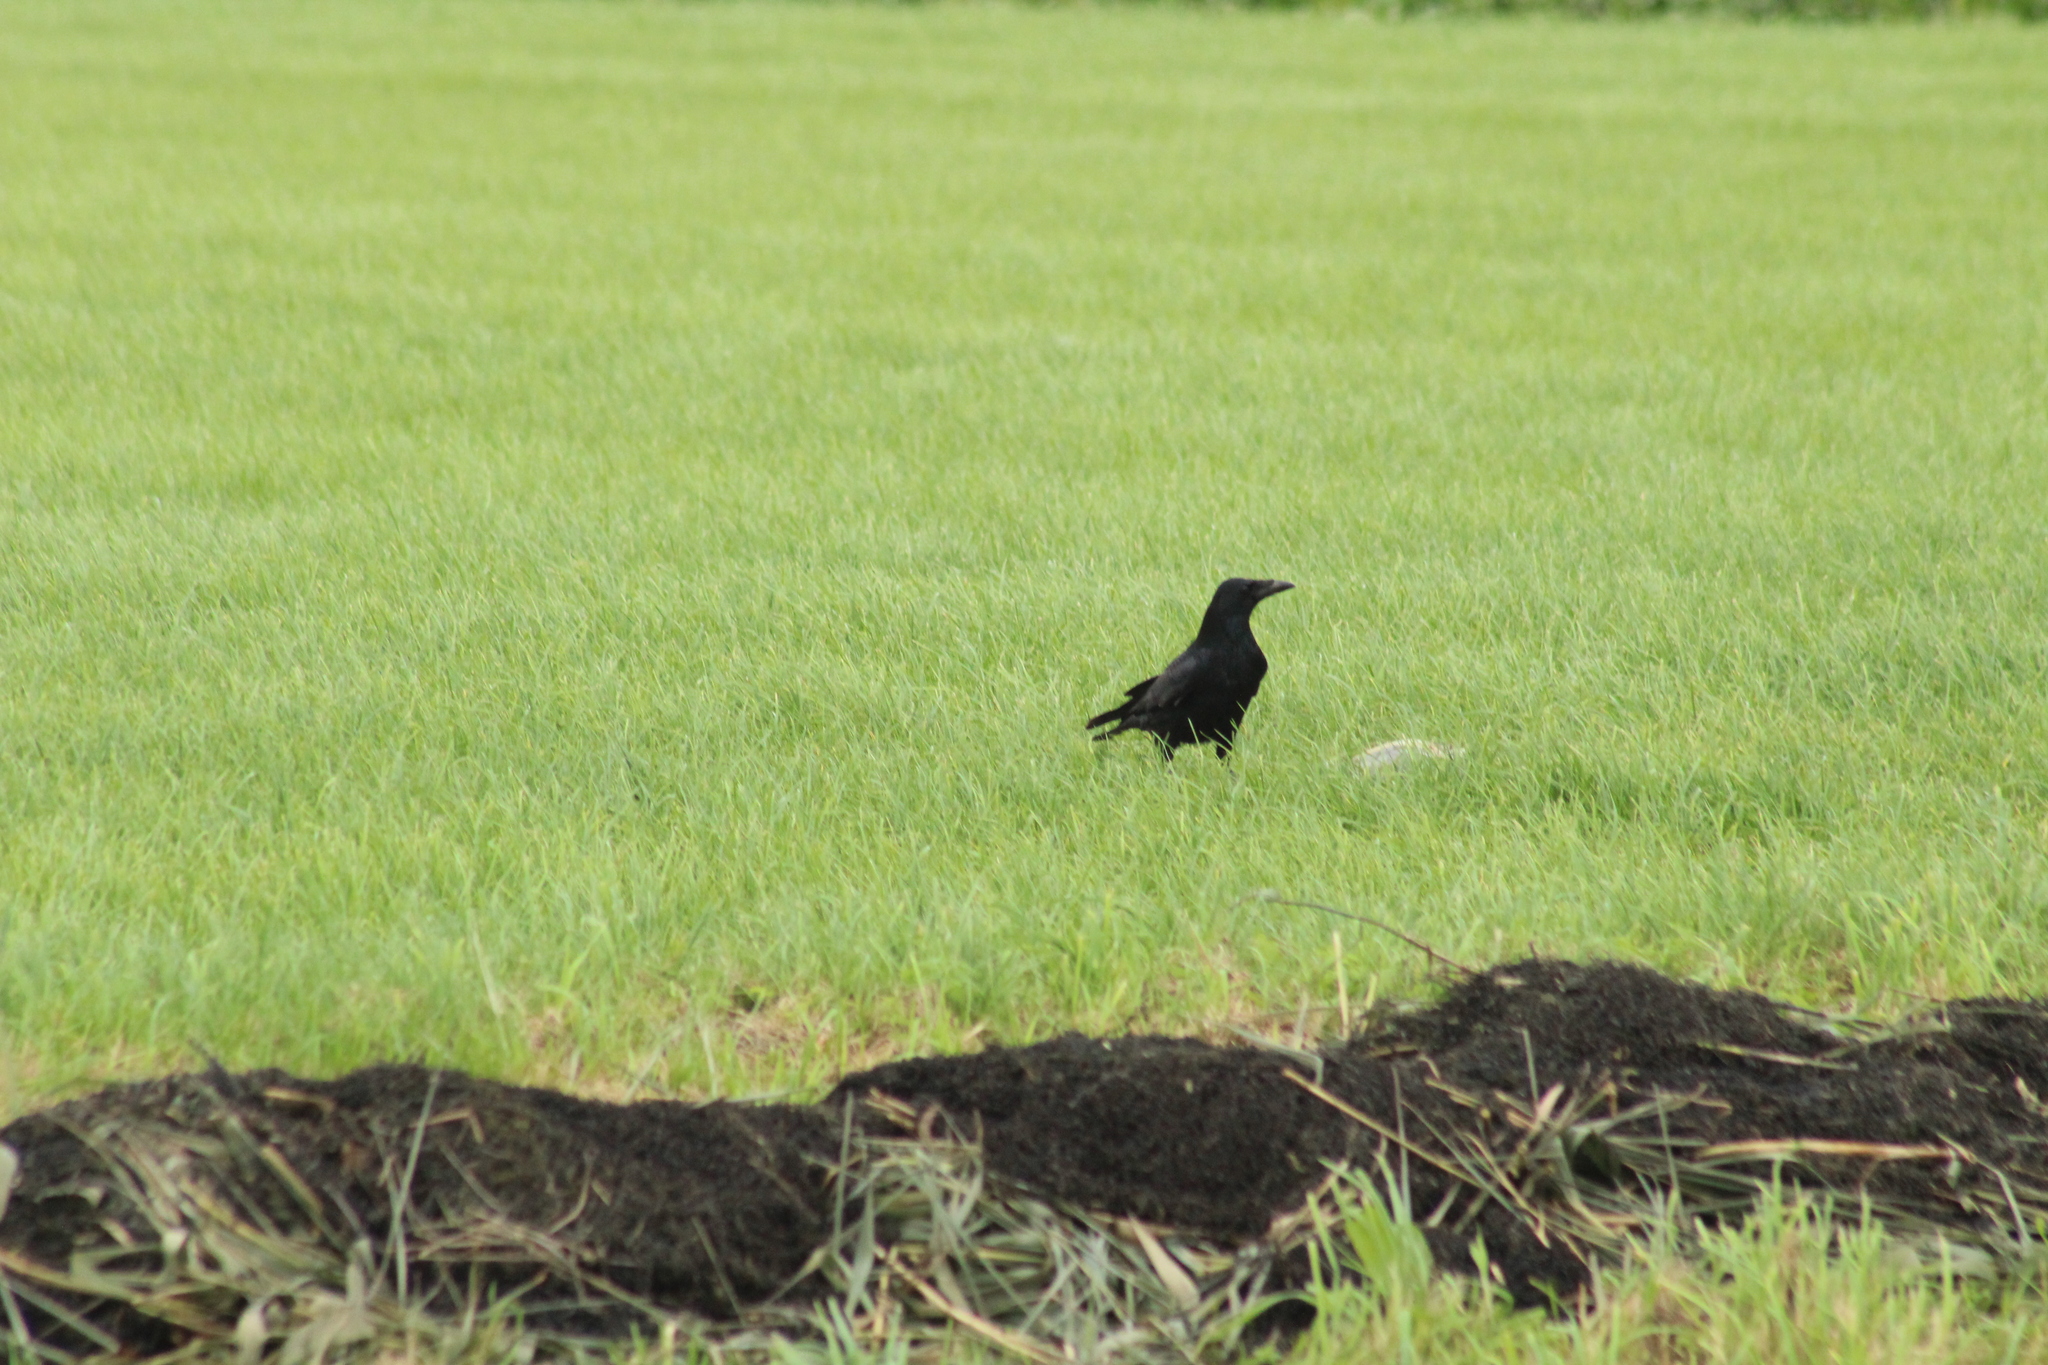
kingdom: Animalia
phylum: Chordata
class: Aves
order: Passeriformes
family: Corvidae
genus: Corvus
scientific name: Corvus corone
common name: Carrion crow
